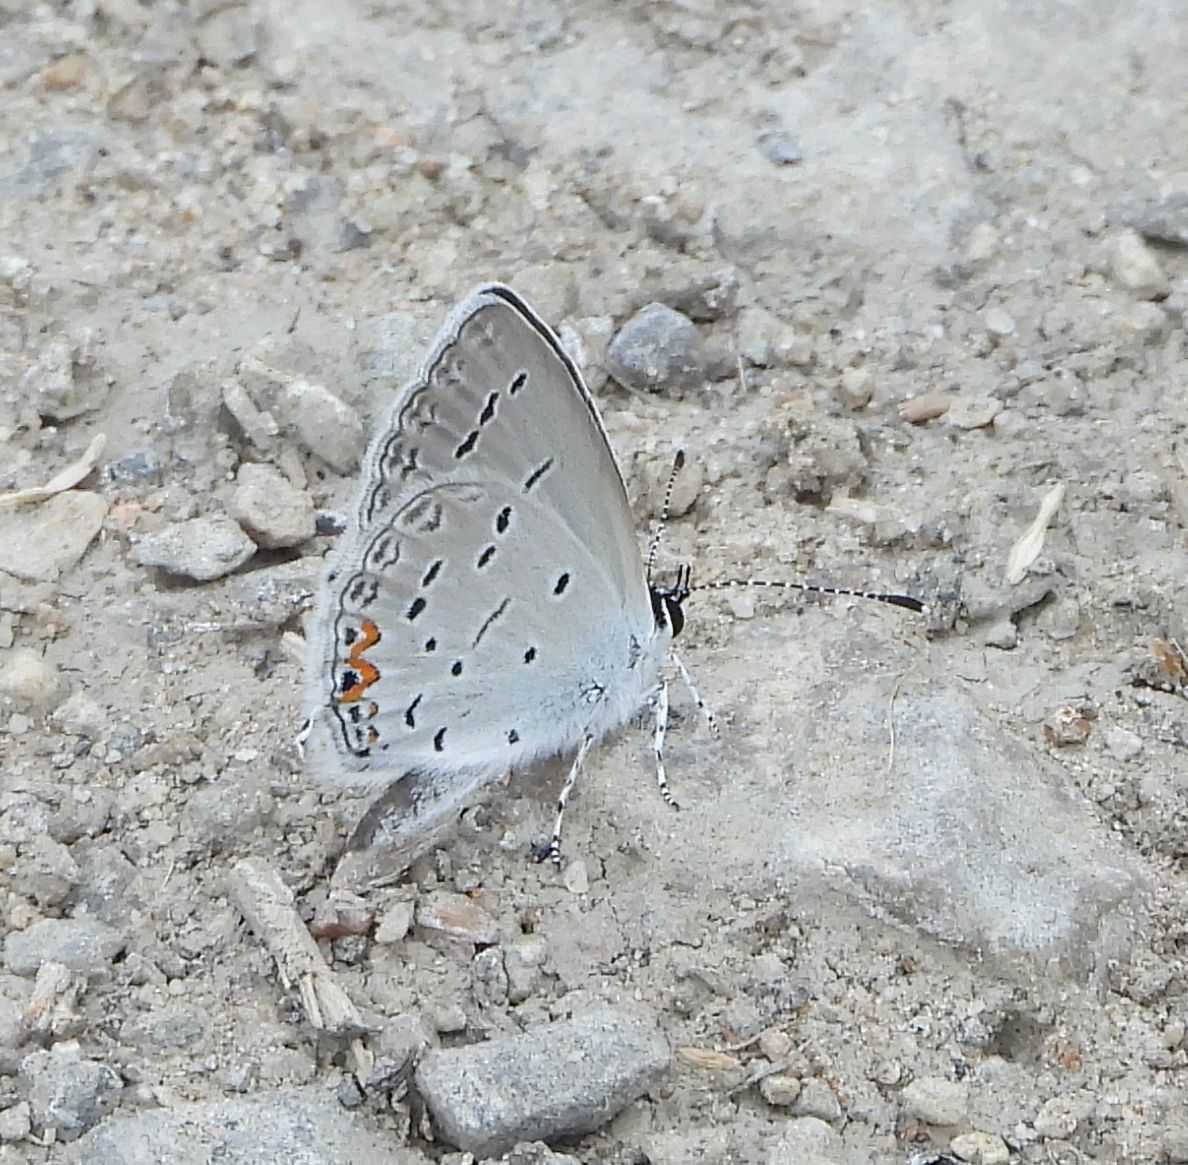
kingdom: Animalia
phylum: Arthropoda
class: Insecta
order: Lepidoptera
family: Lycaenidae
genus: Elkalyce
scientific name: Elkalyce comyntas
